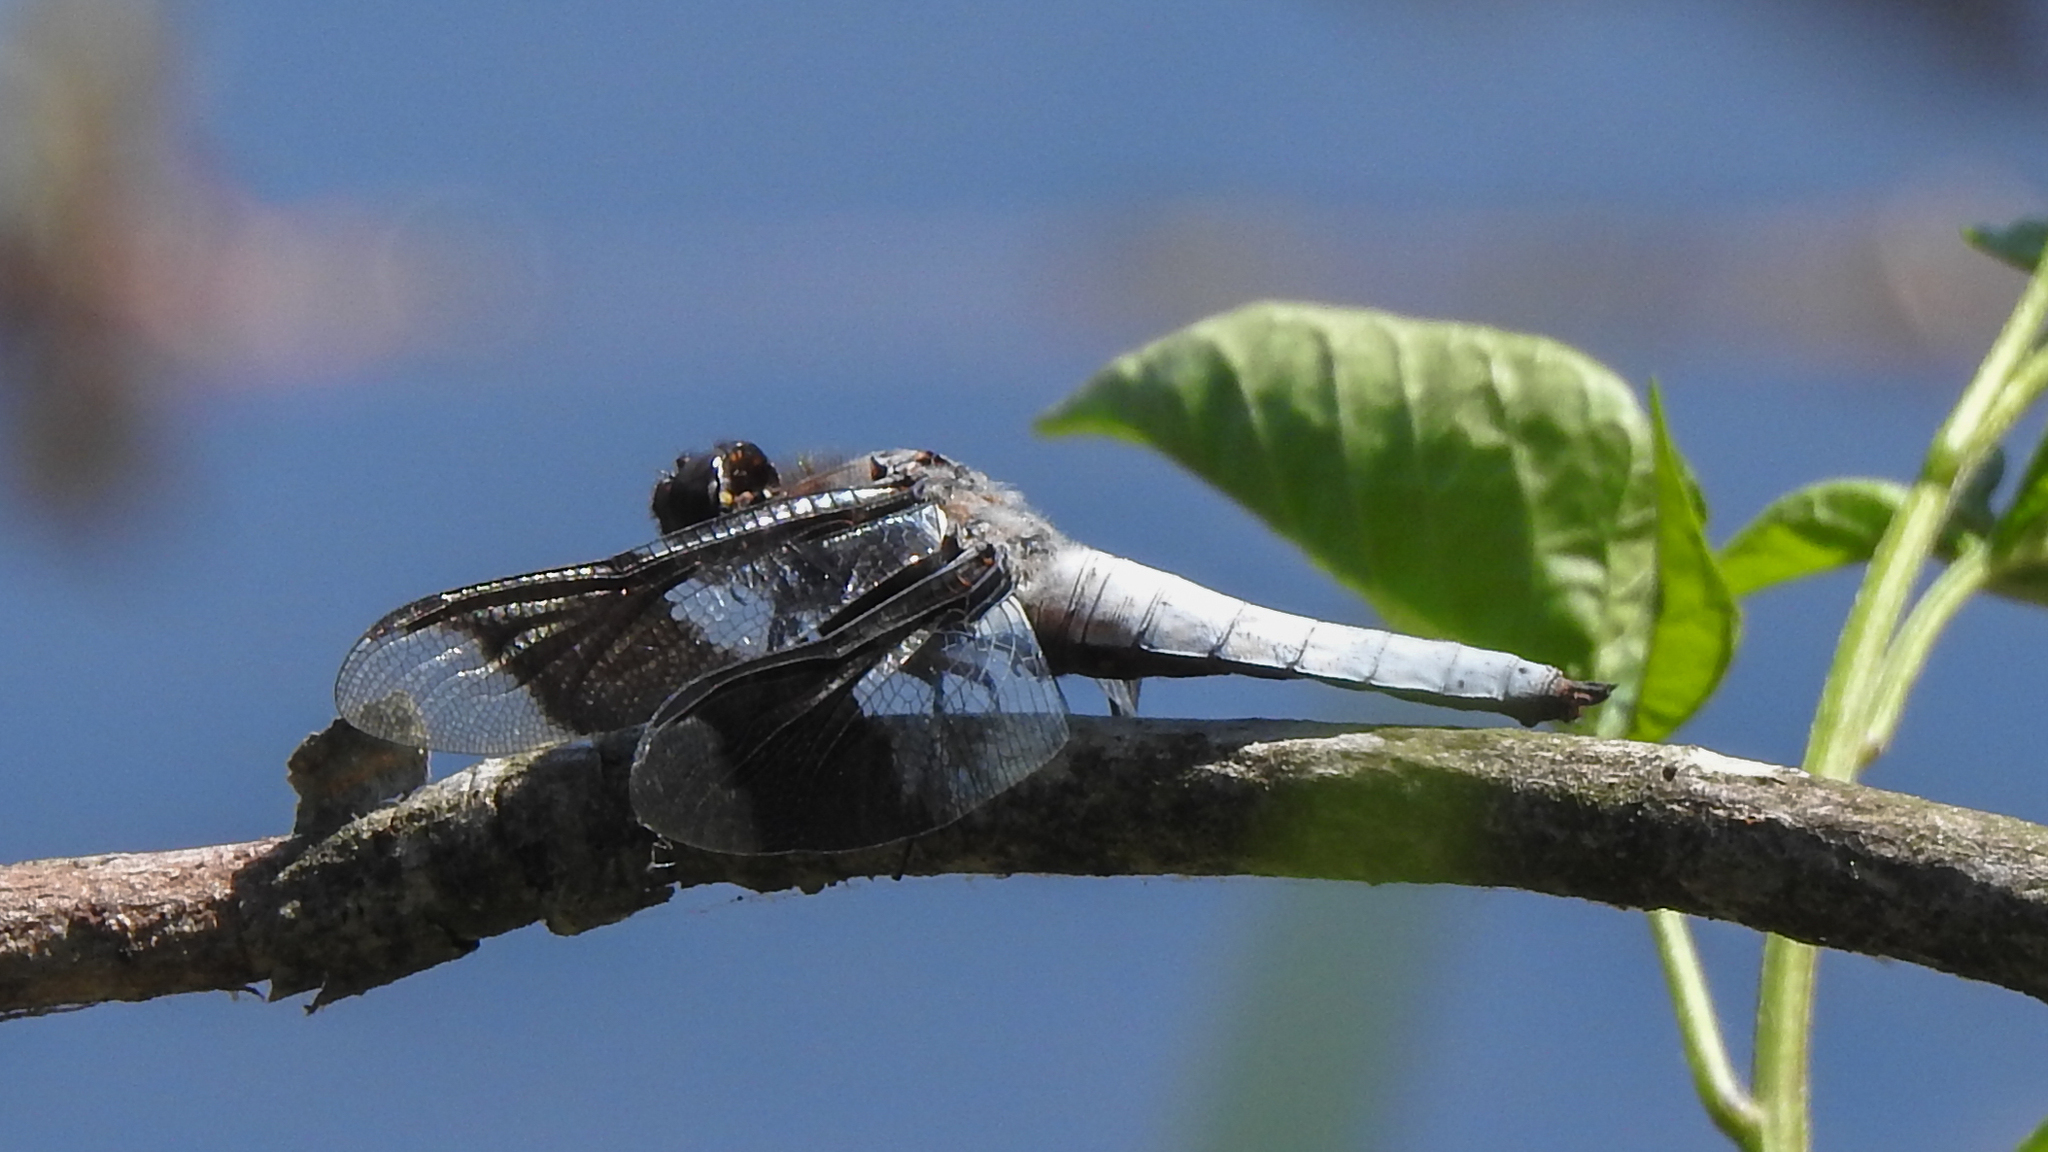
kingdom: Animalia
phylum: Arthropoda
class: Insecta
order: Odonata
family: Libellulidae
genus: Plathemis
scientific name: Plathemis lydia
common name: Common whitetail
